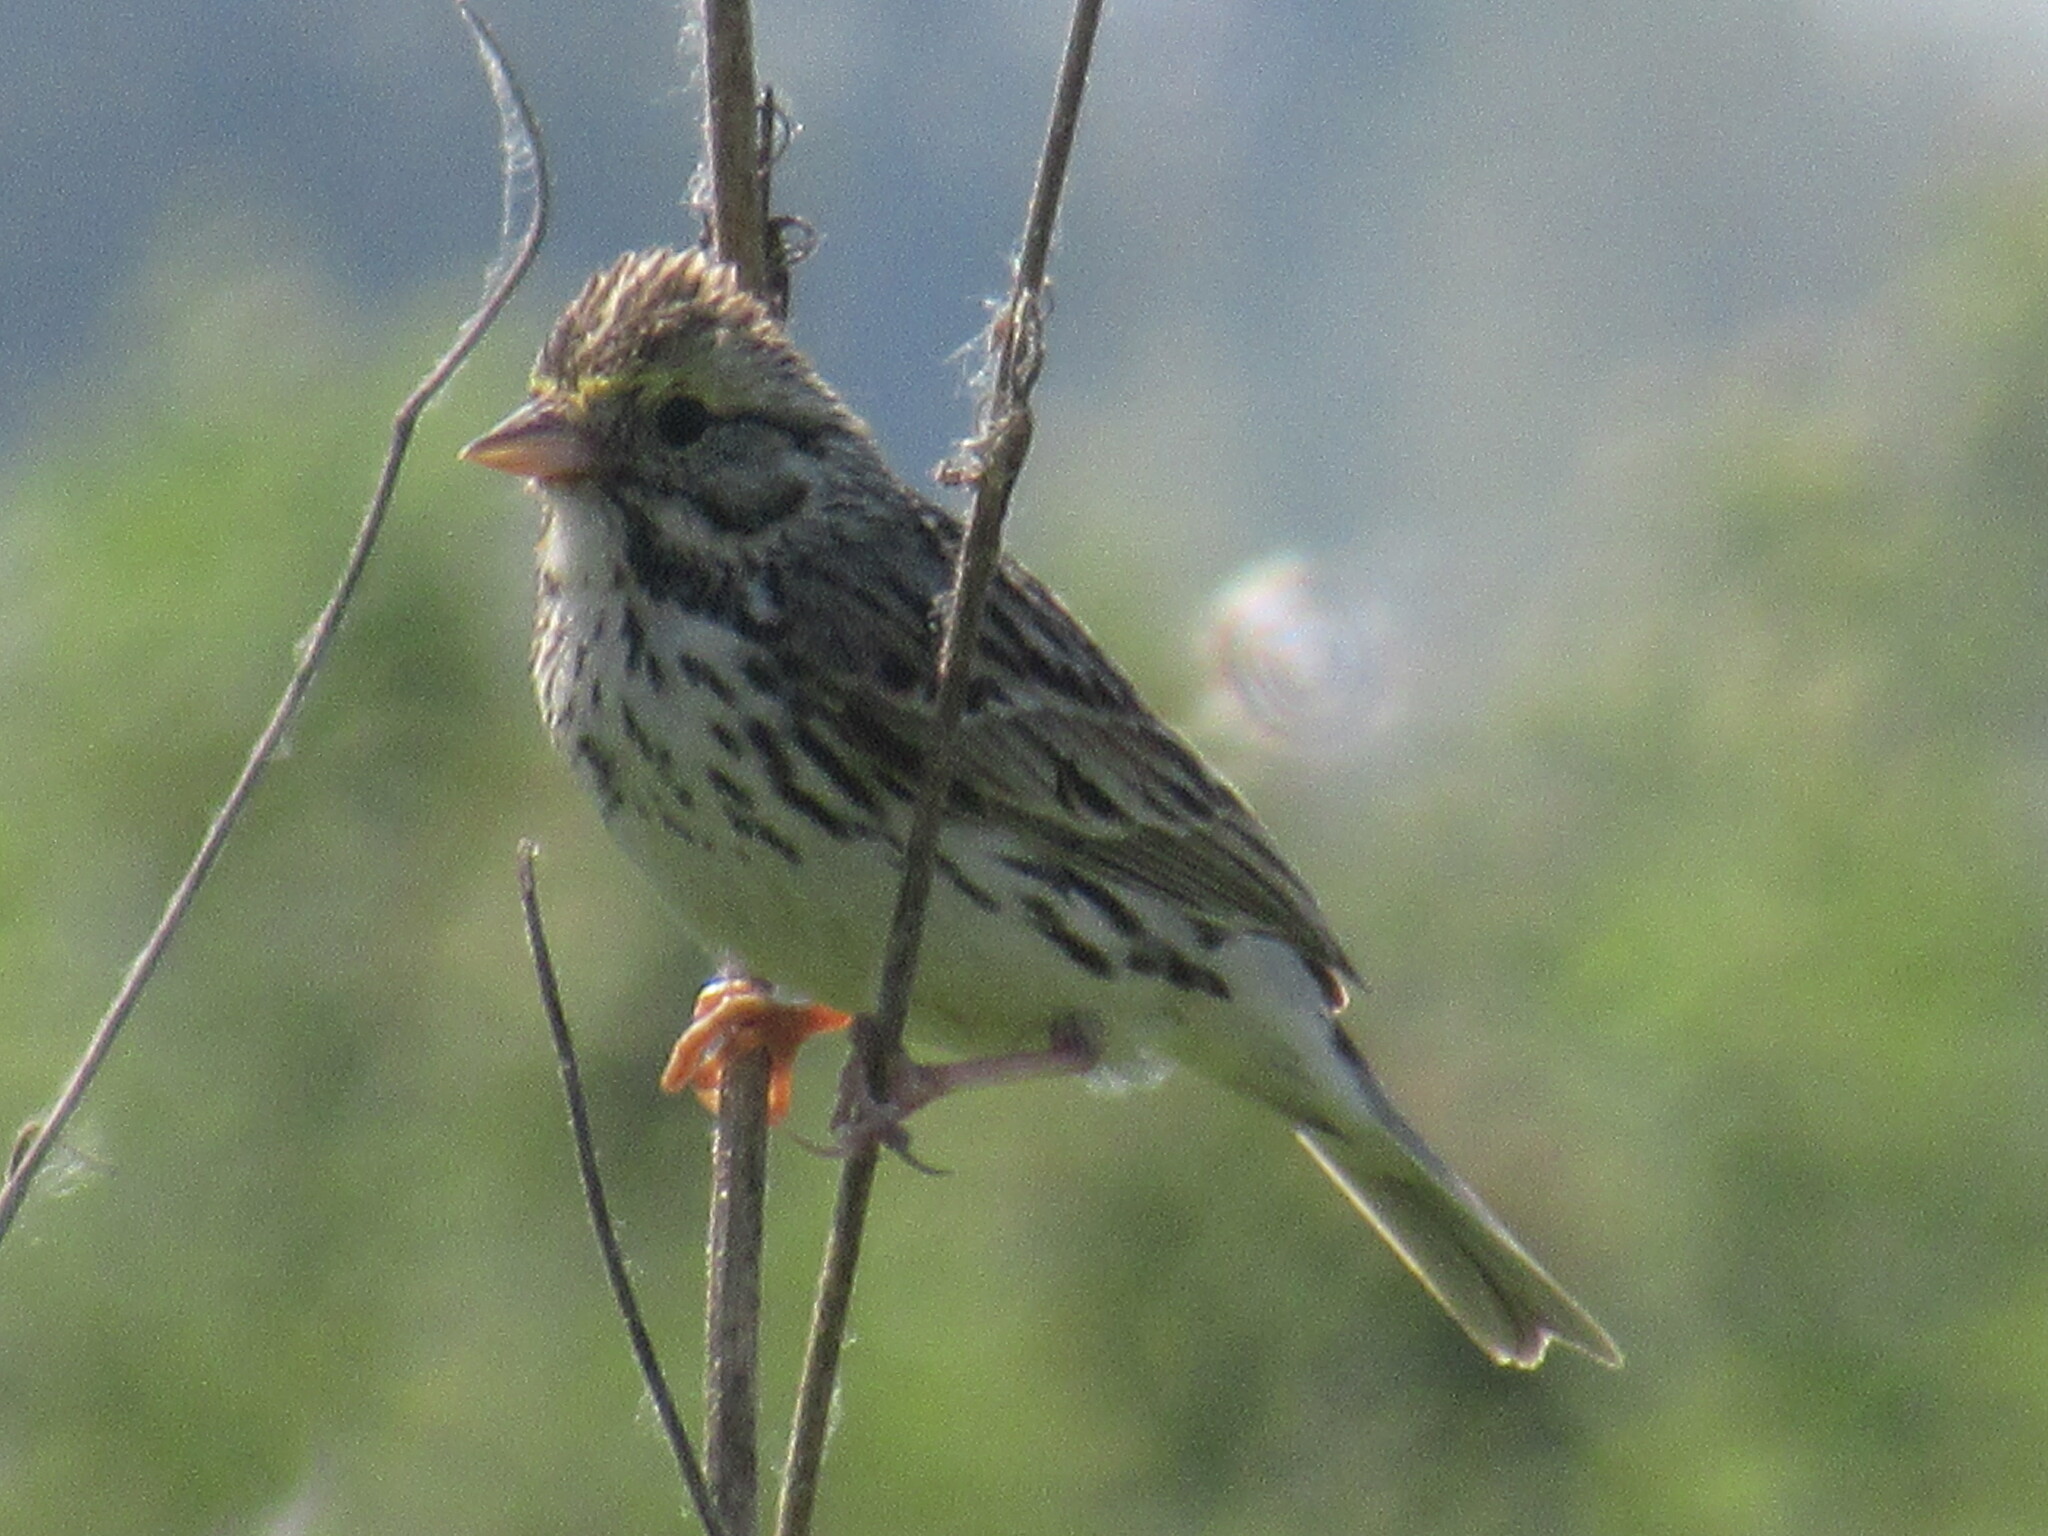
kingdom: Animalia
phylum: Chordata
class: Aves
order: Passeriformes
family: Passerellidae
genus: Passerculus
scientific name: Passerculus sandwichensis
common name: Savannah sparrow
